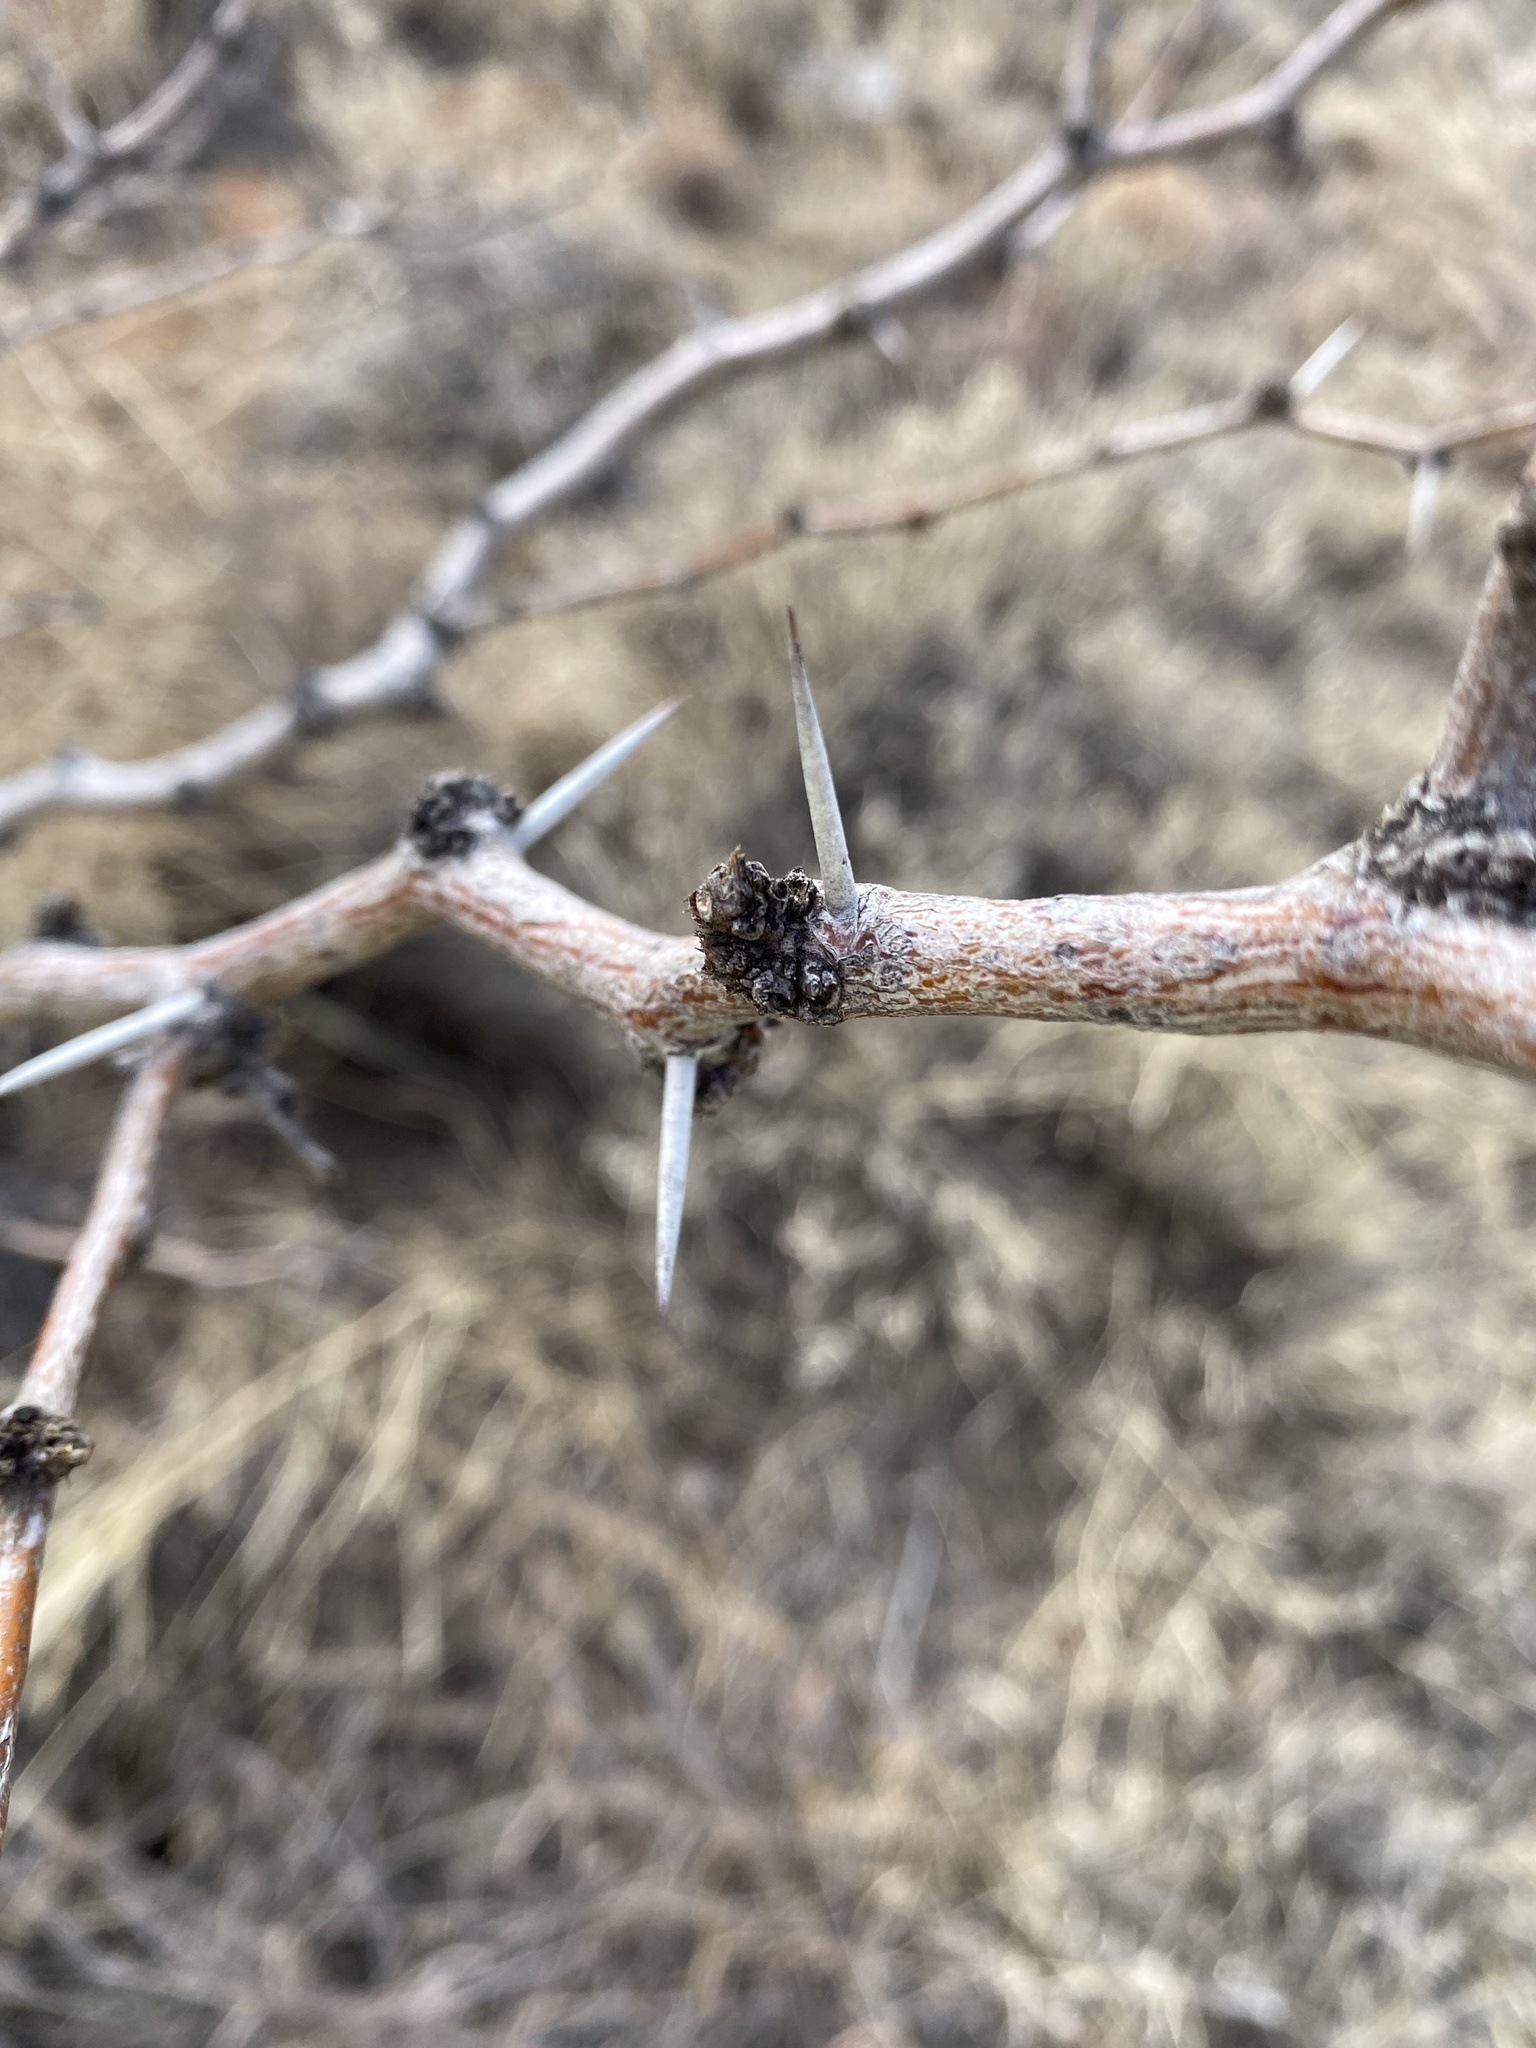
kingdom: Plantae
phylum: Tracheophyta
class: Magnoliopsida
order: Fabales
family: Fabaceae
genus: Prosopis
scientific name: Prosopis glandulosa
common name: Honey mesquite
